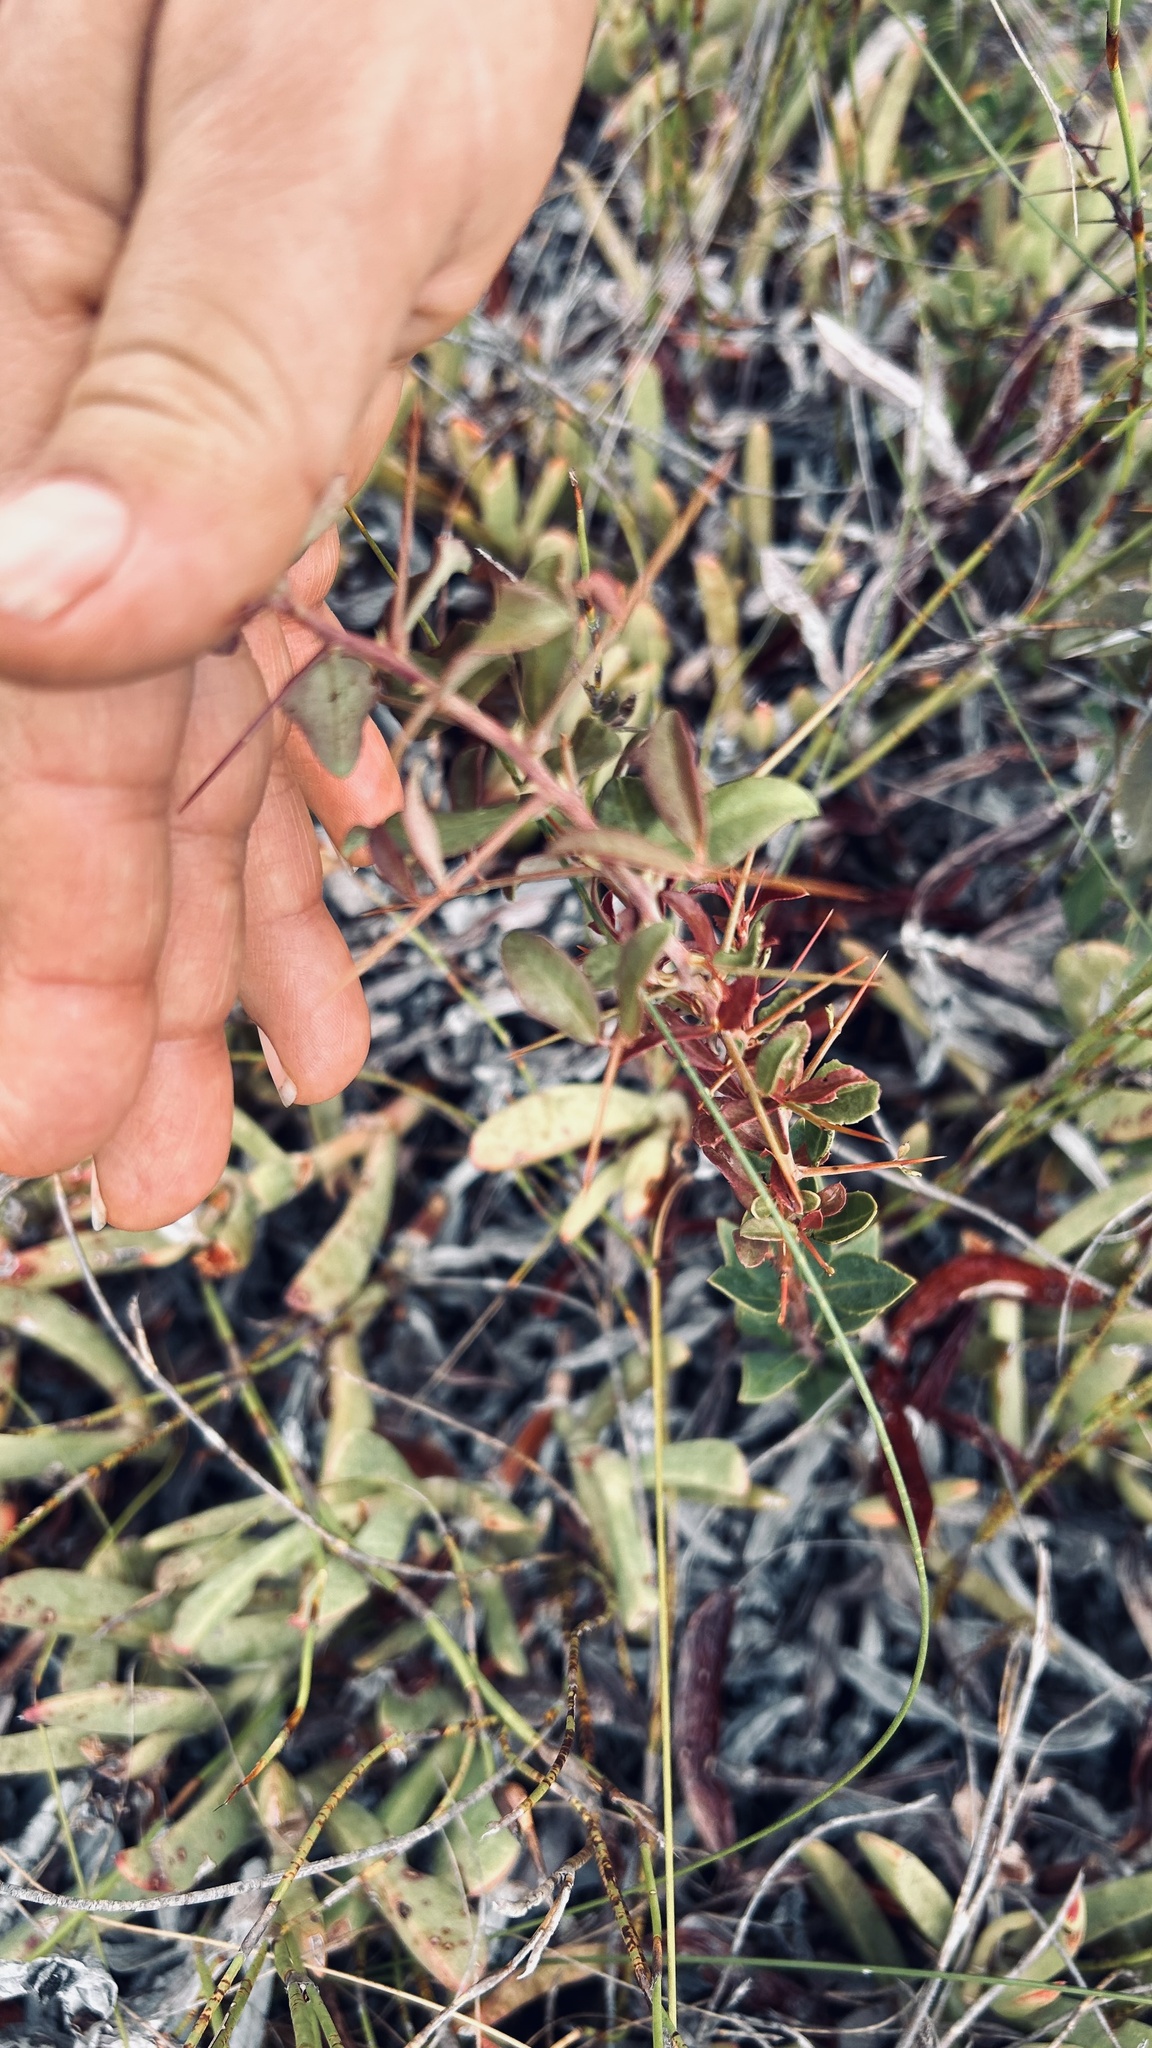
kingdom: Plantae
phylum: Tracheophyta
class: Magnoliopsida
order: Celastrales
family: Celastraceae
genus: Putterlickia
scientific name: Putterlickia pyracantha
